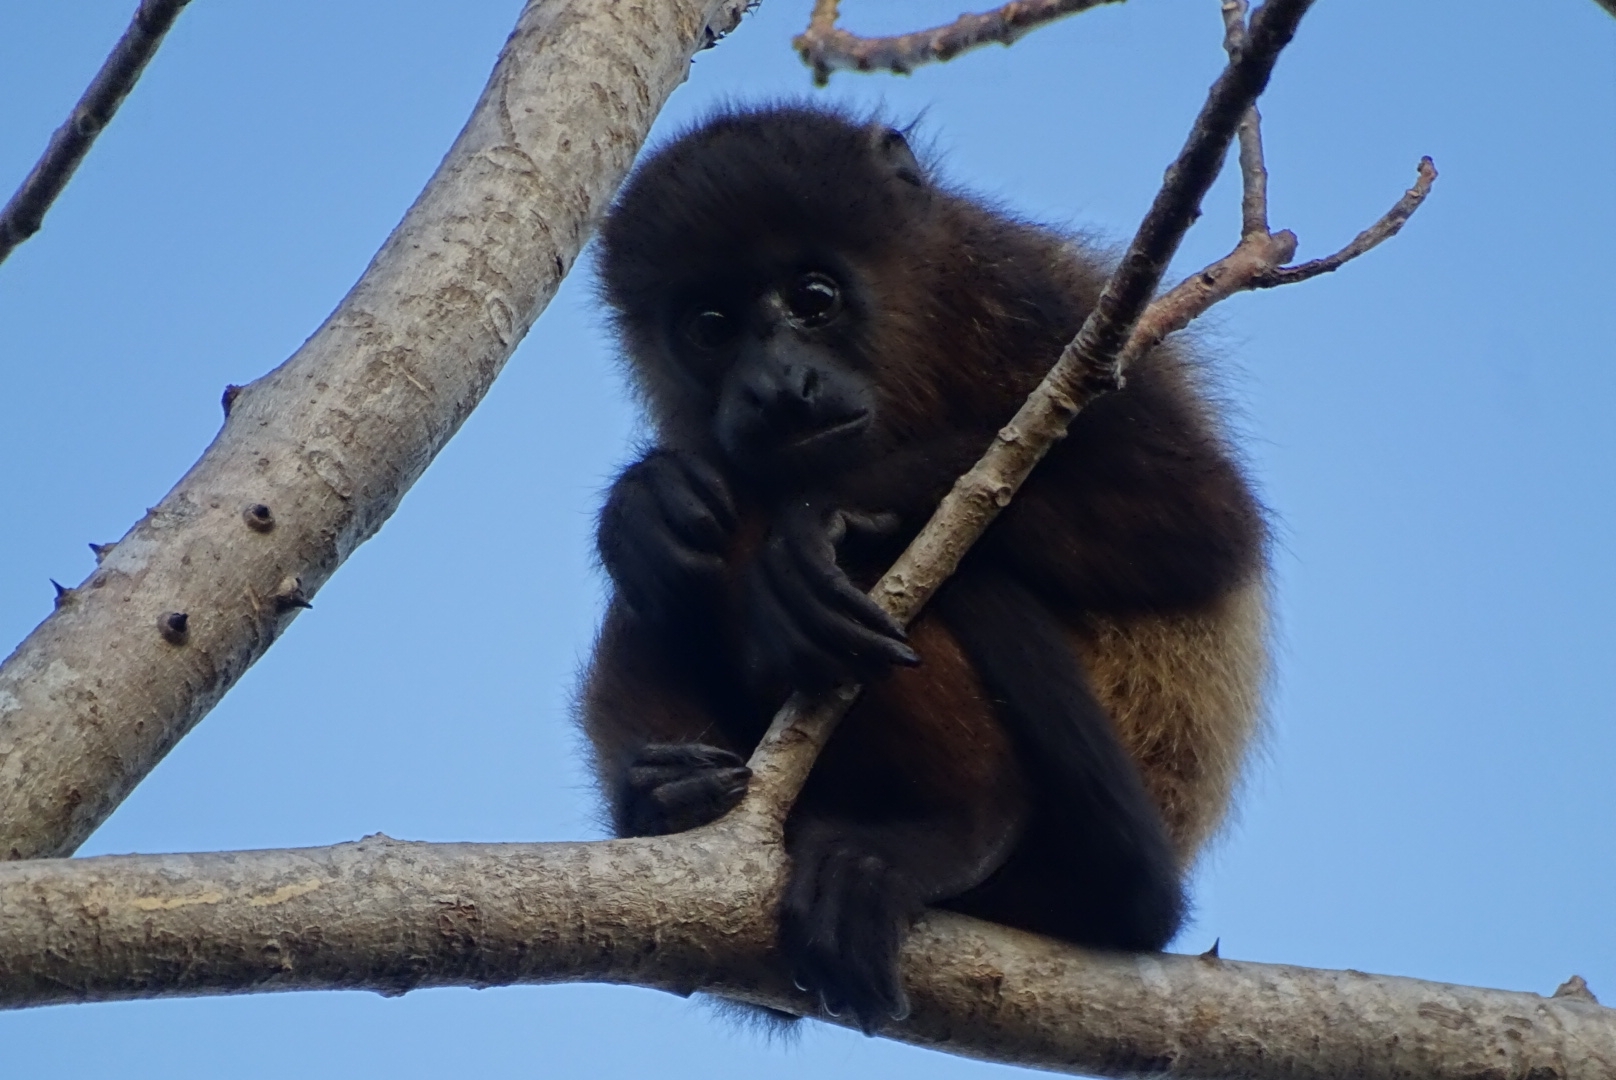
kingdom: Animalia
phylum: Chordata
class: Mammalia
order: Primates
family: Atelidae
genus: Alouatta
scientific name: Alouatta palliata
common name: Mantled howler
